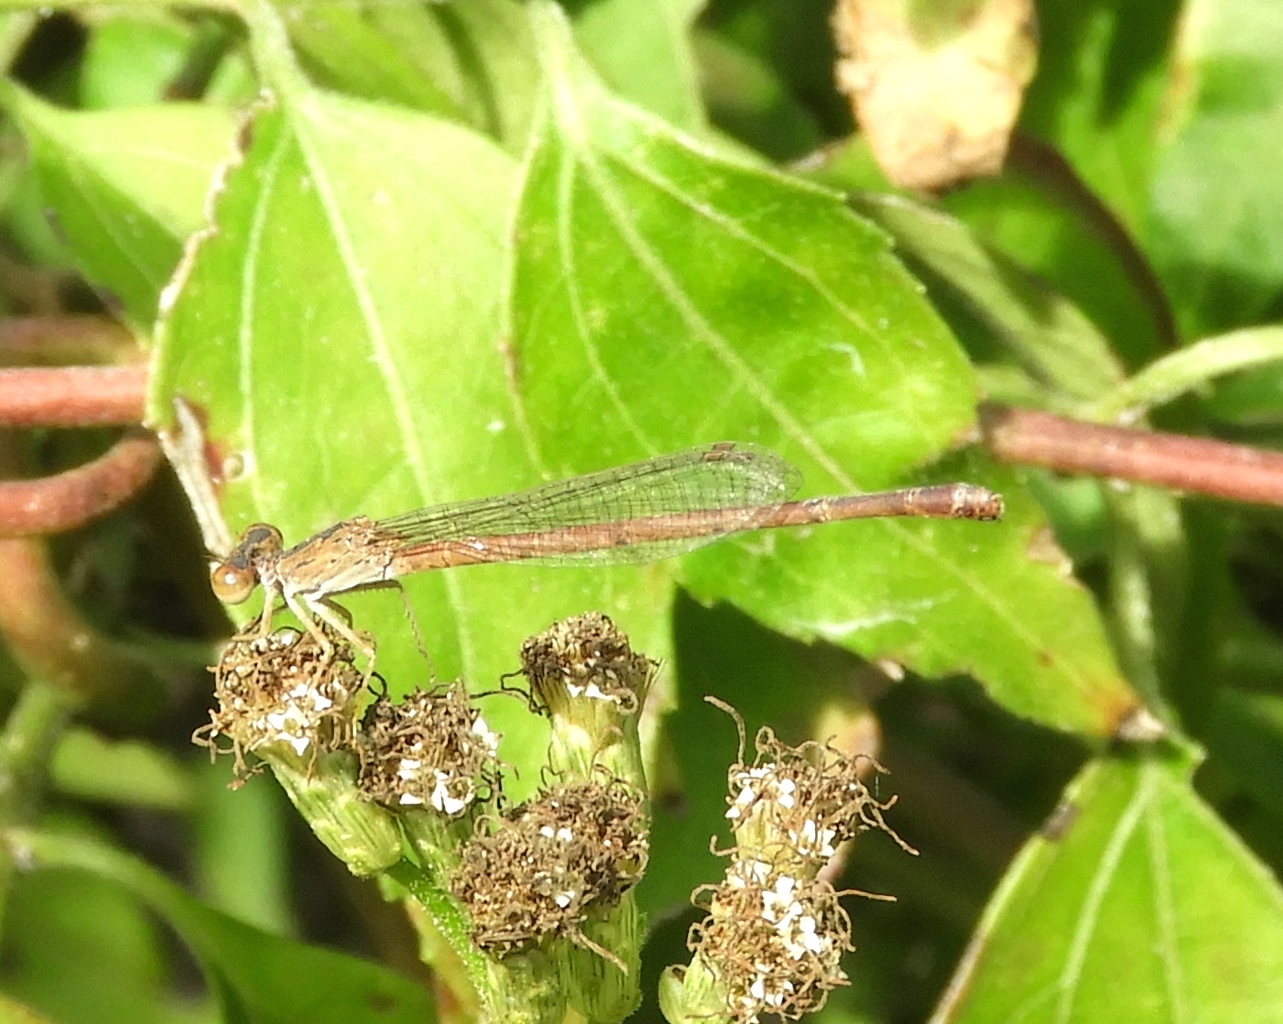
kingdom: Animalia
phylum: Arthropoda
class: Insecta
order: Odonata
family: Coenagrionidae
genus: Telebasis
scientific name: Telebasis salva
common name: Desert firetail
